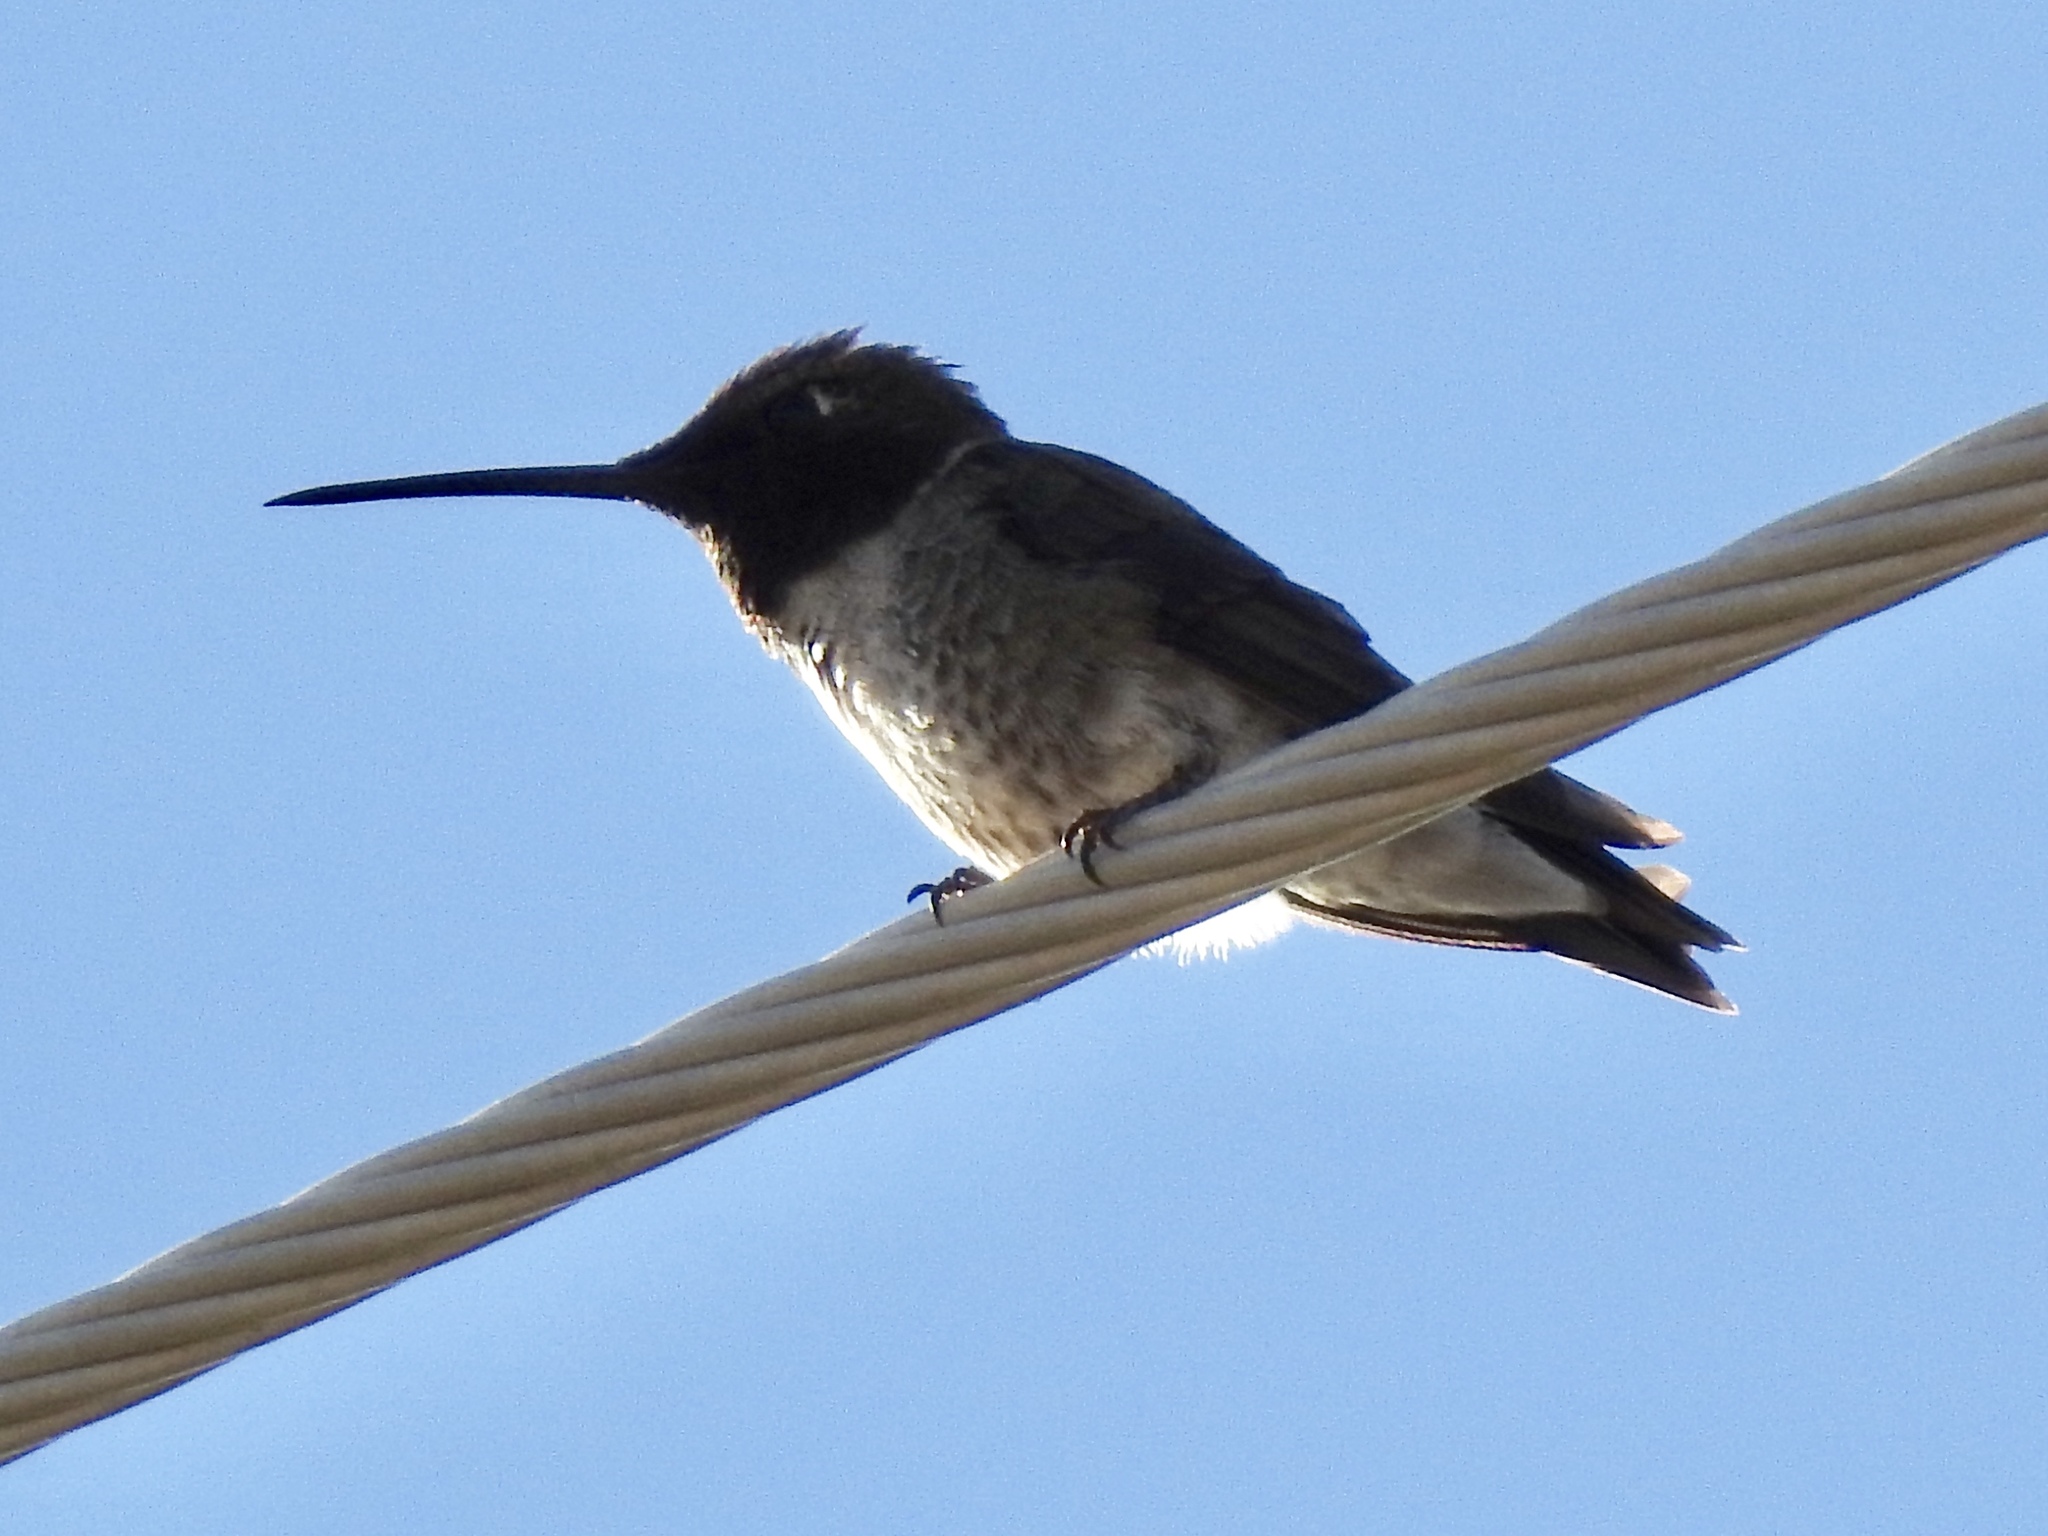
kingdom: Animalia
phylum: Chordata
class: Aves
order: Apodiformes
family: Trochilidae
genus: Archilochus
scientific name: Archilochus alexandri
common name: Black-chinned hummingbird
